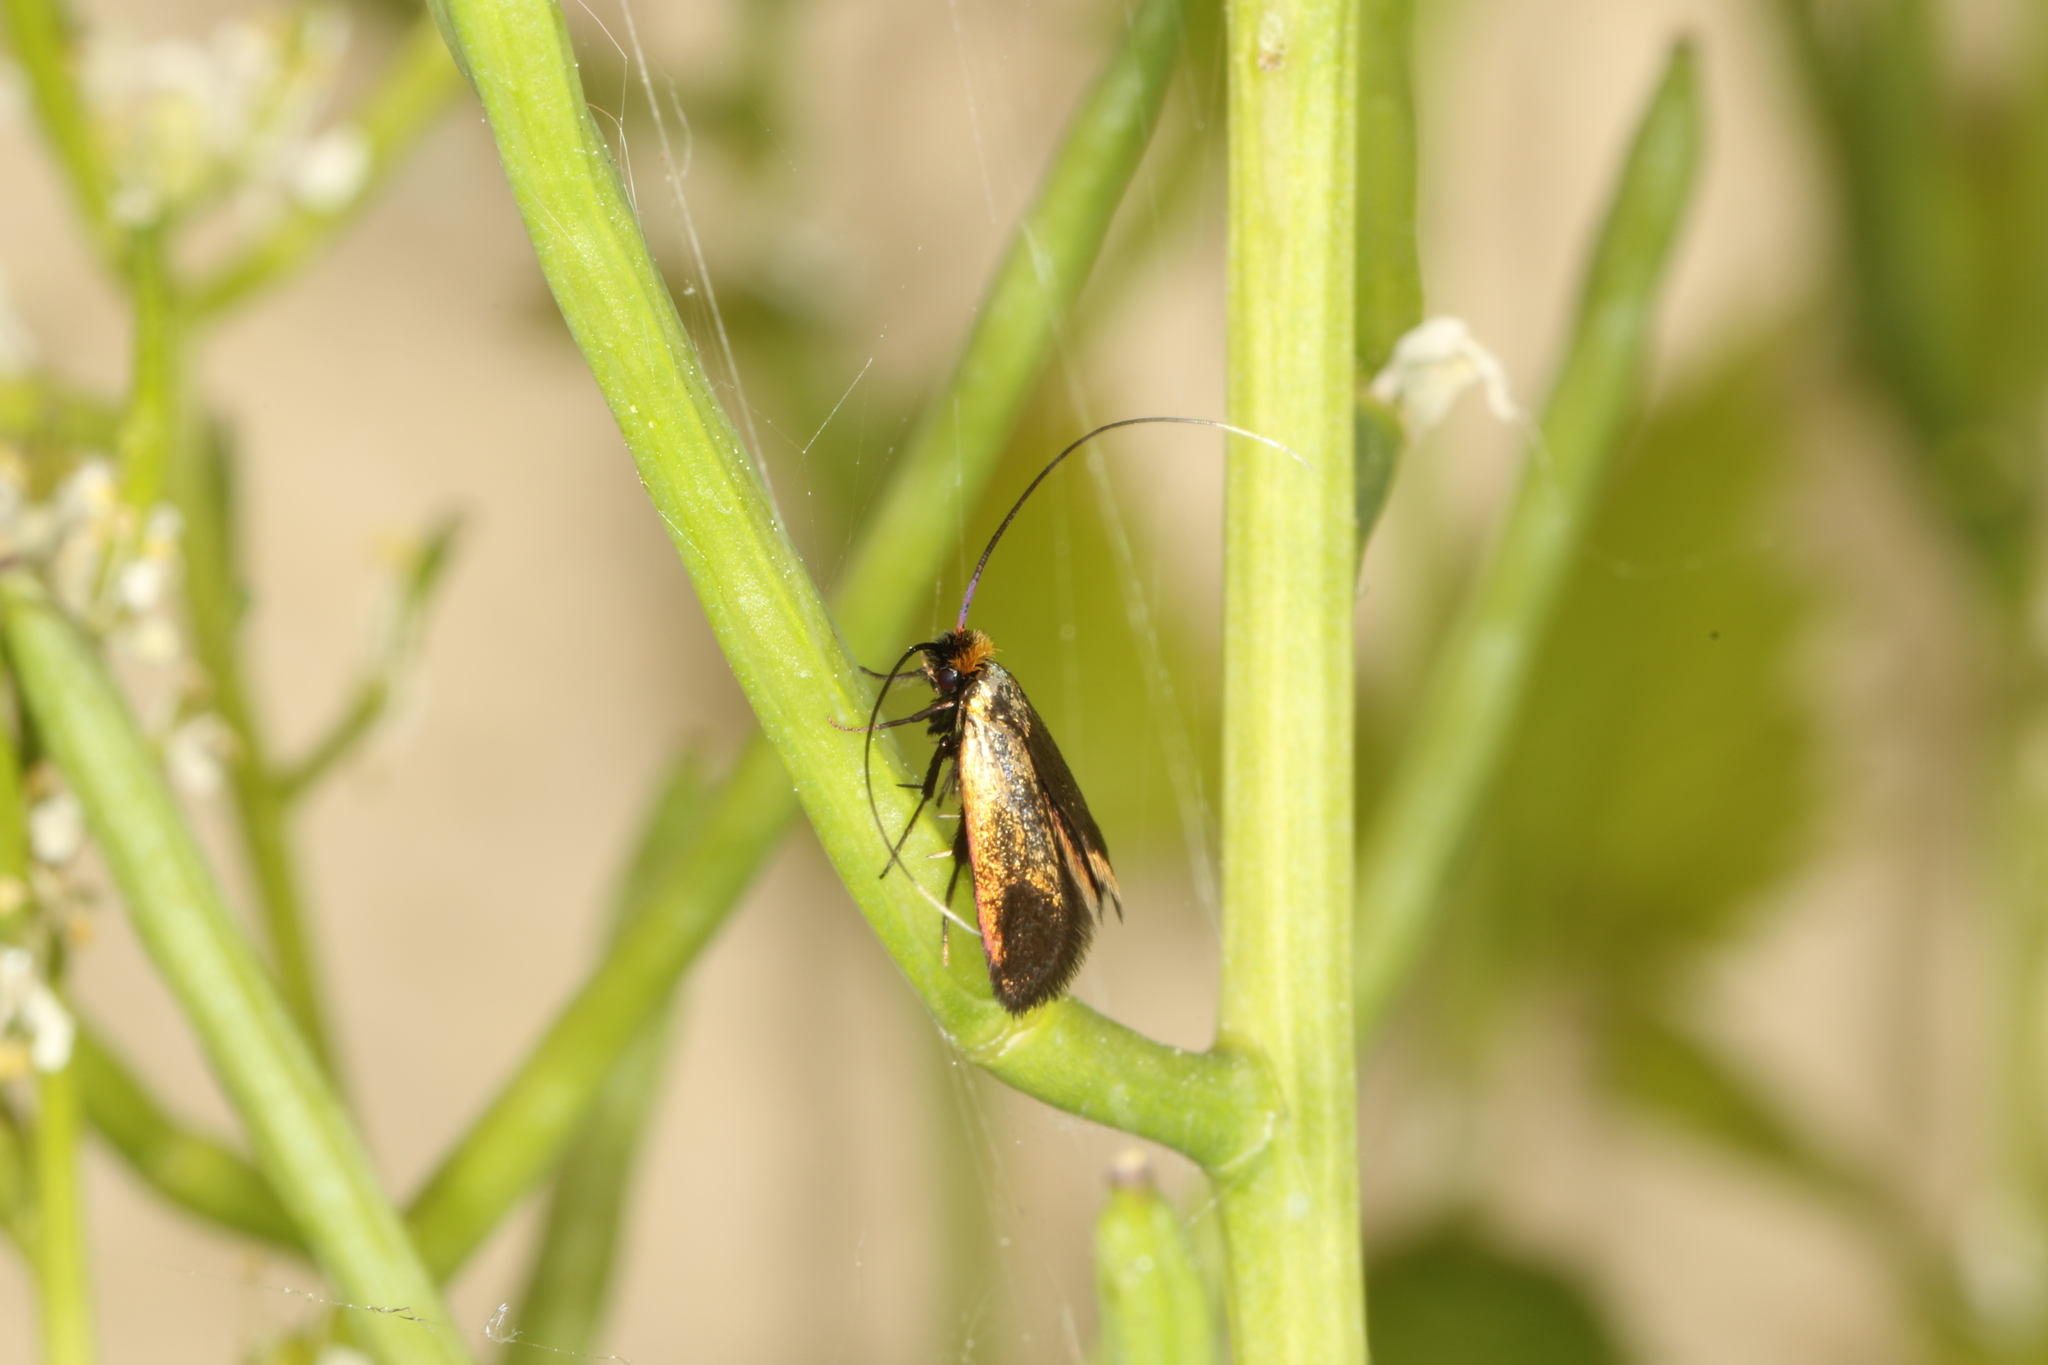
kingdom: Animalia
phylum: Arthropoda
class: Insecta
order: Lepidoptera
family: Adelidae
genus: Cauchas
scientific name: Cauchas rufimitrella
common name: Meadow long-horn
